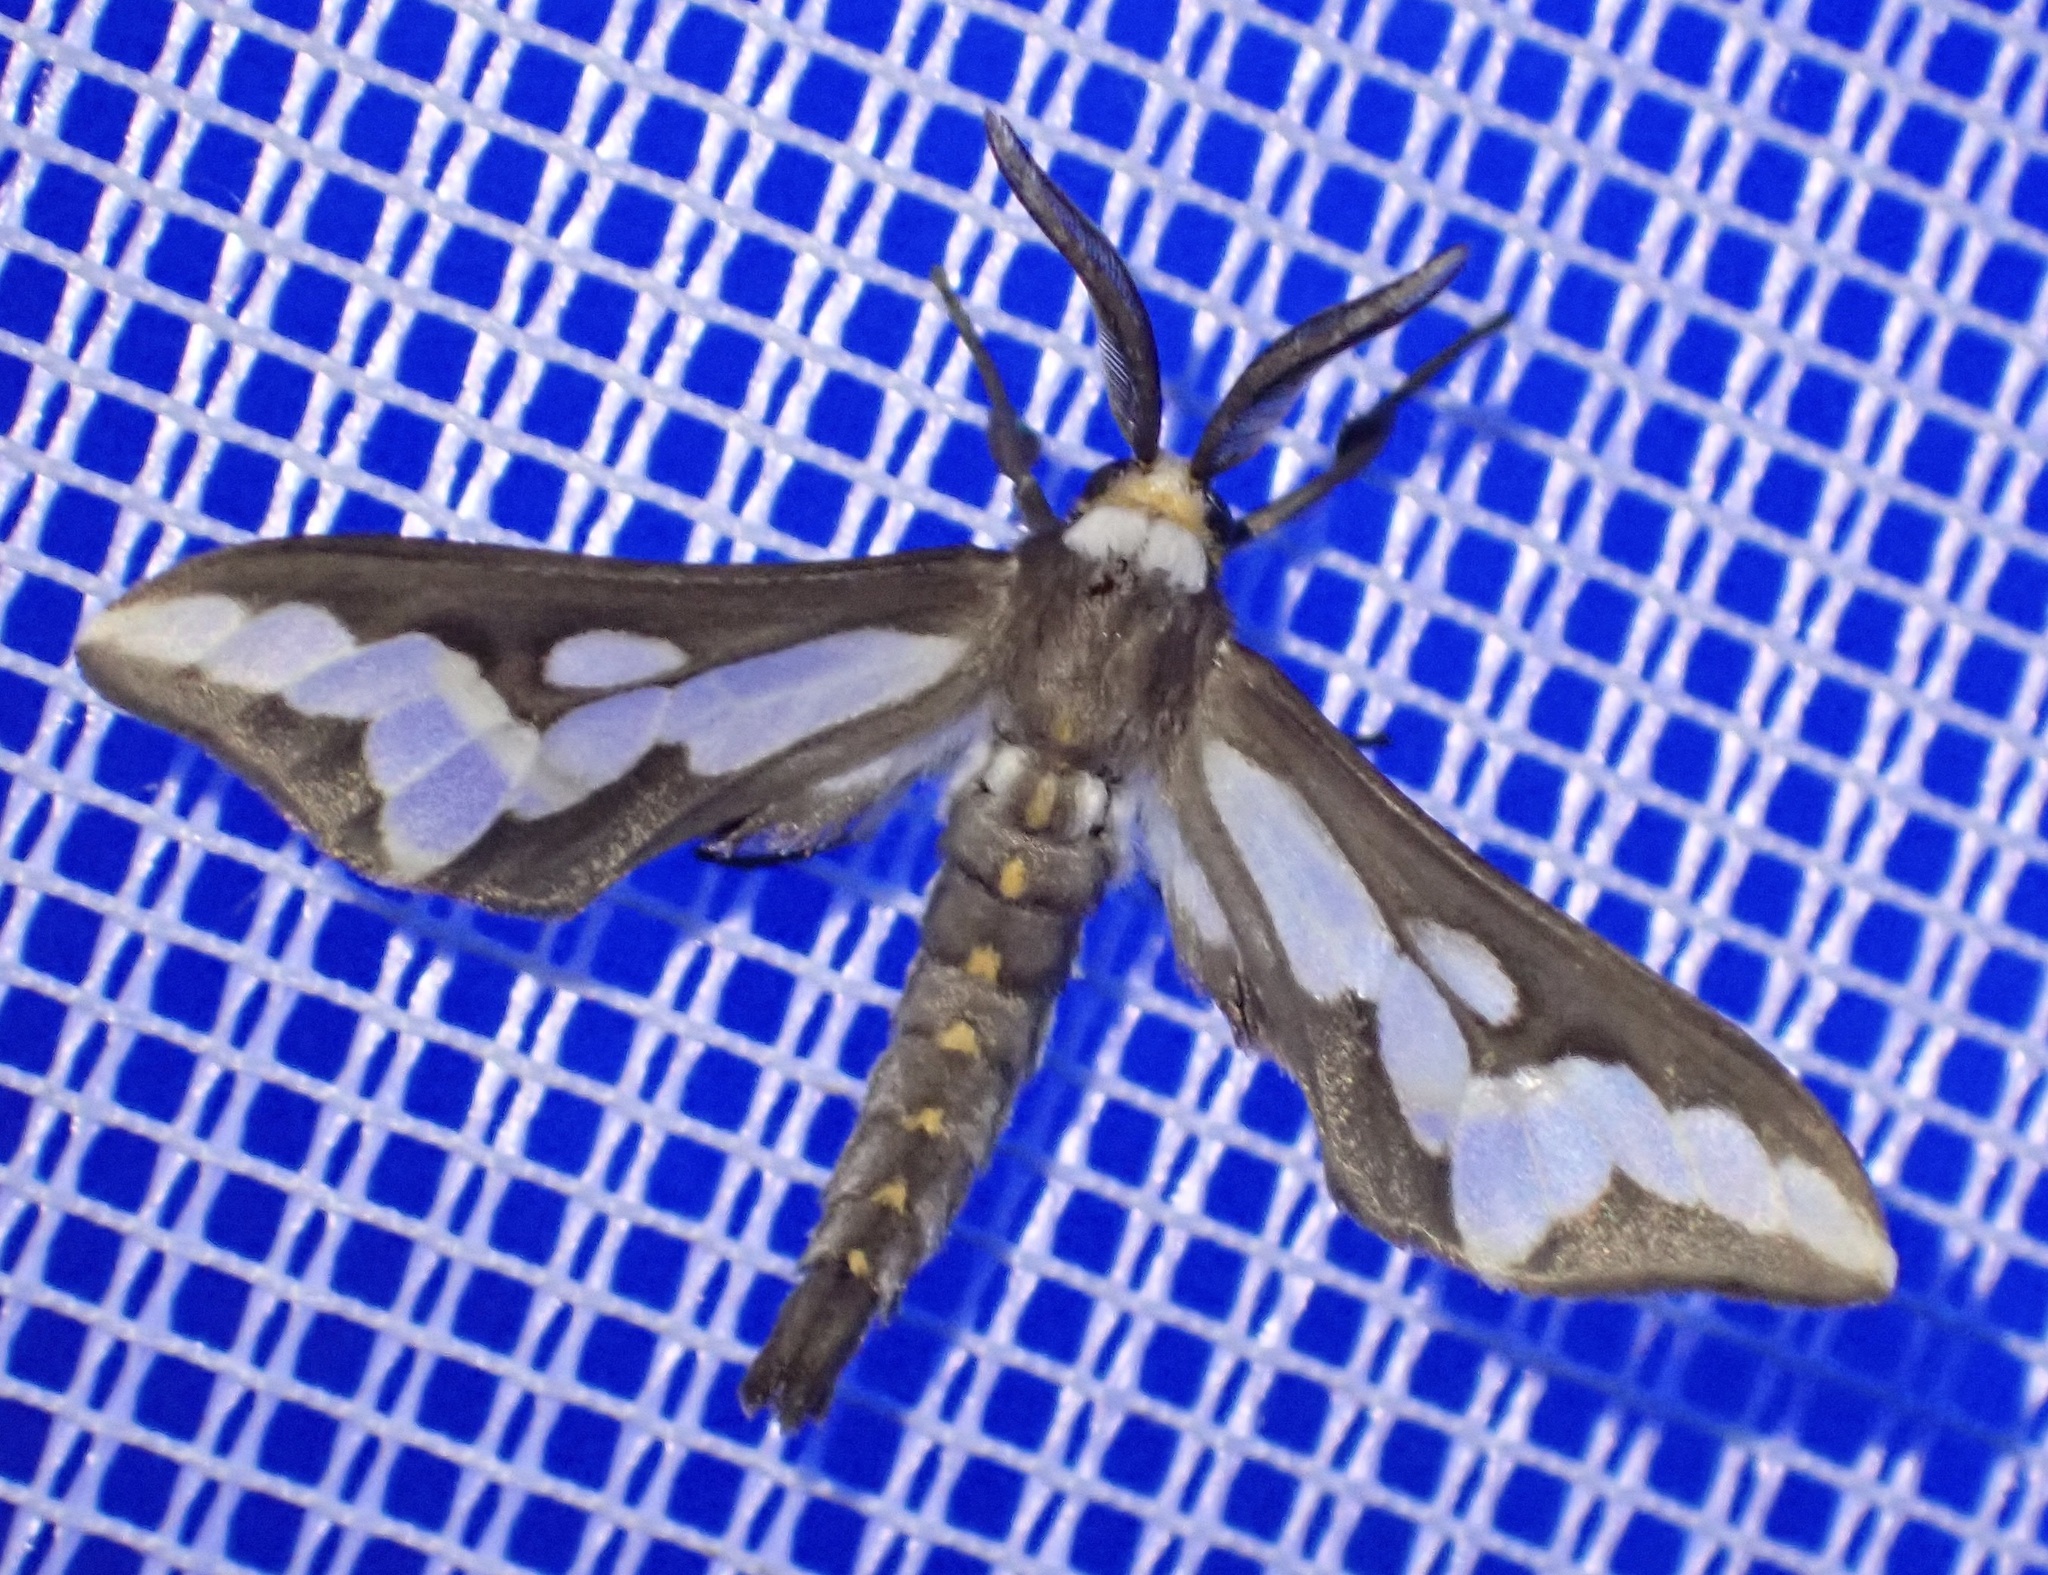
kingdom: Animalia
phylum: Arthropoda
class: Insecta
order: Lepidoptera
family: Erebidae
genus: Thyretes
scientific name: Thyretes caffra
